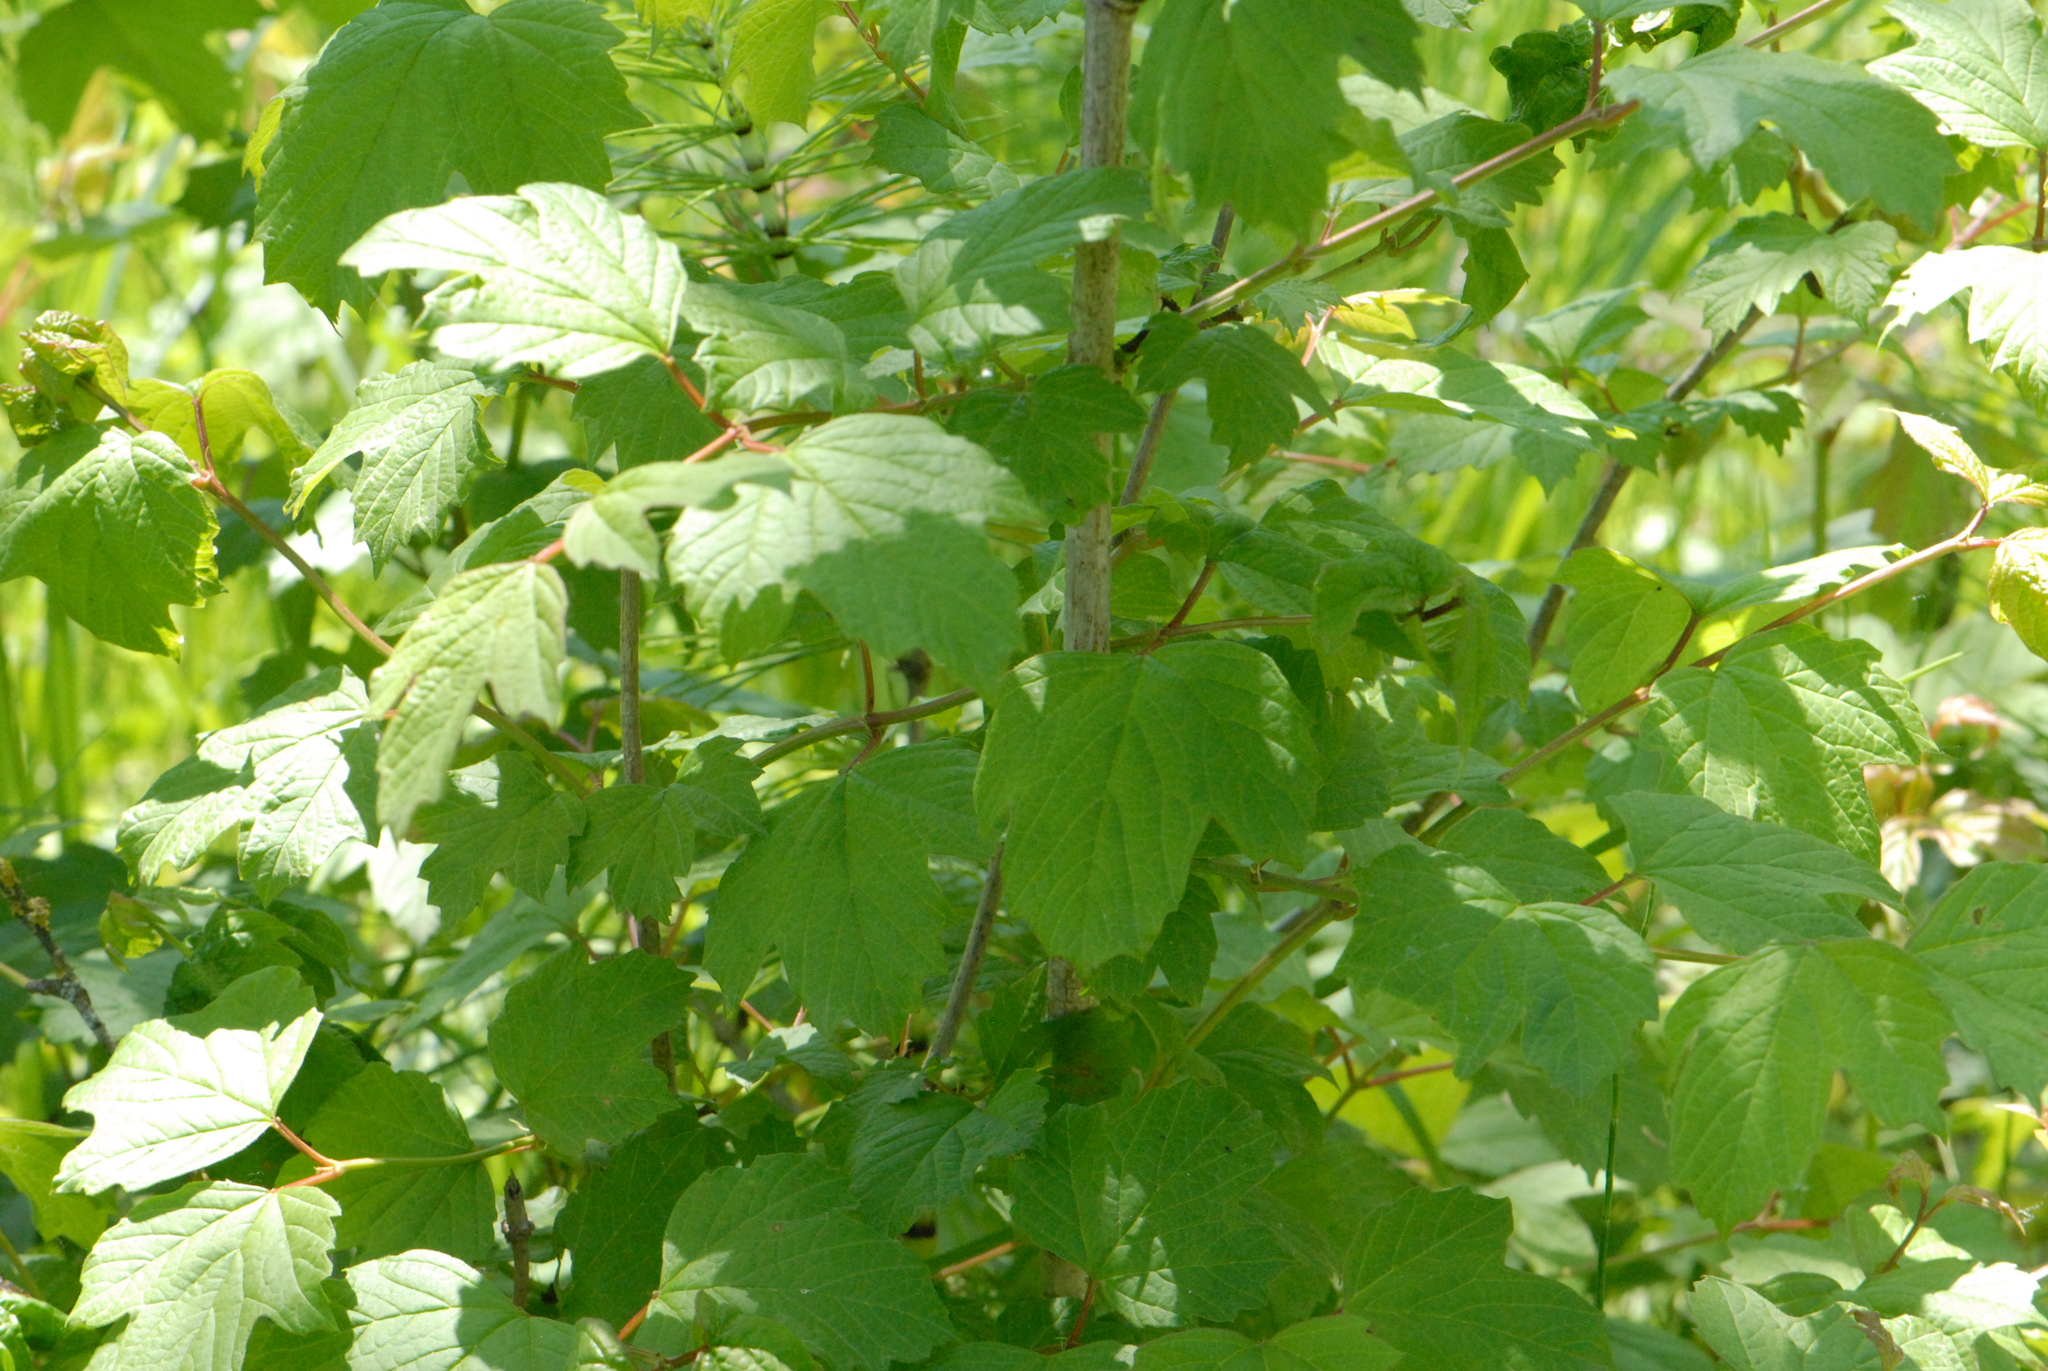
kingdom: Plantae
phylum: Tracheophyta
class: Magnoliopsida
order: Dipsacales
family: Viburnaceae
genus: Viburnum
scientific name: Viburnum opulus
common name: Guelder-rose
